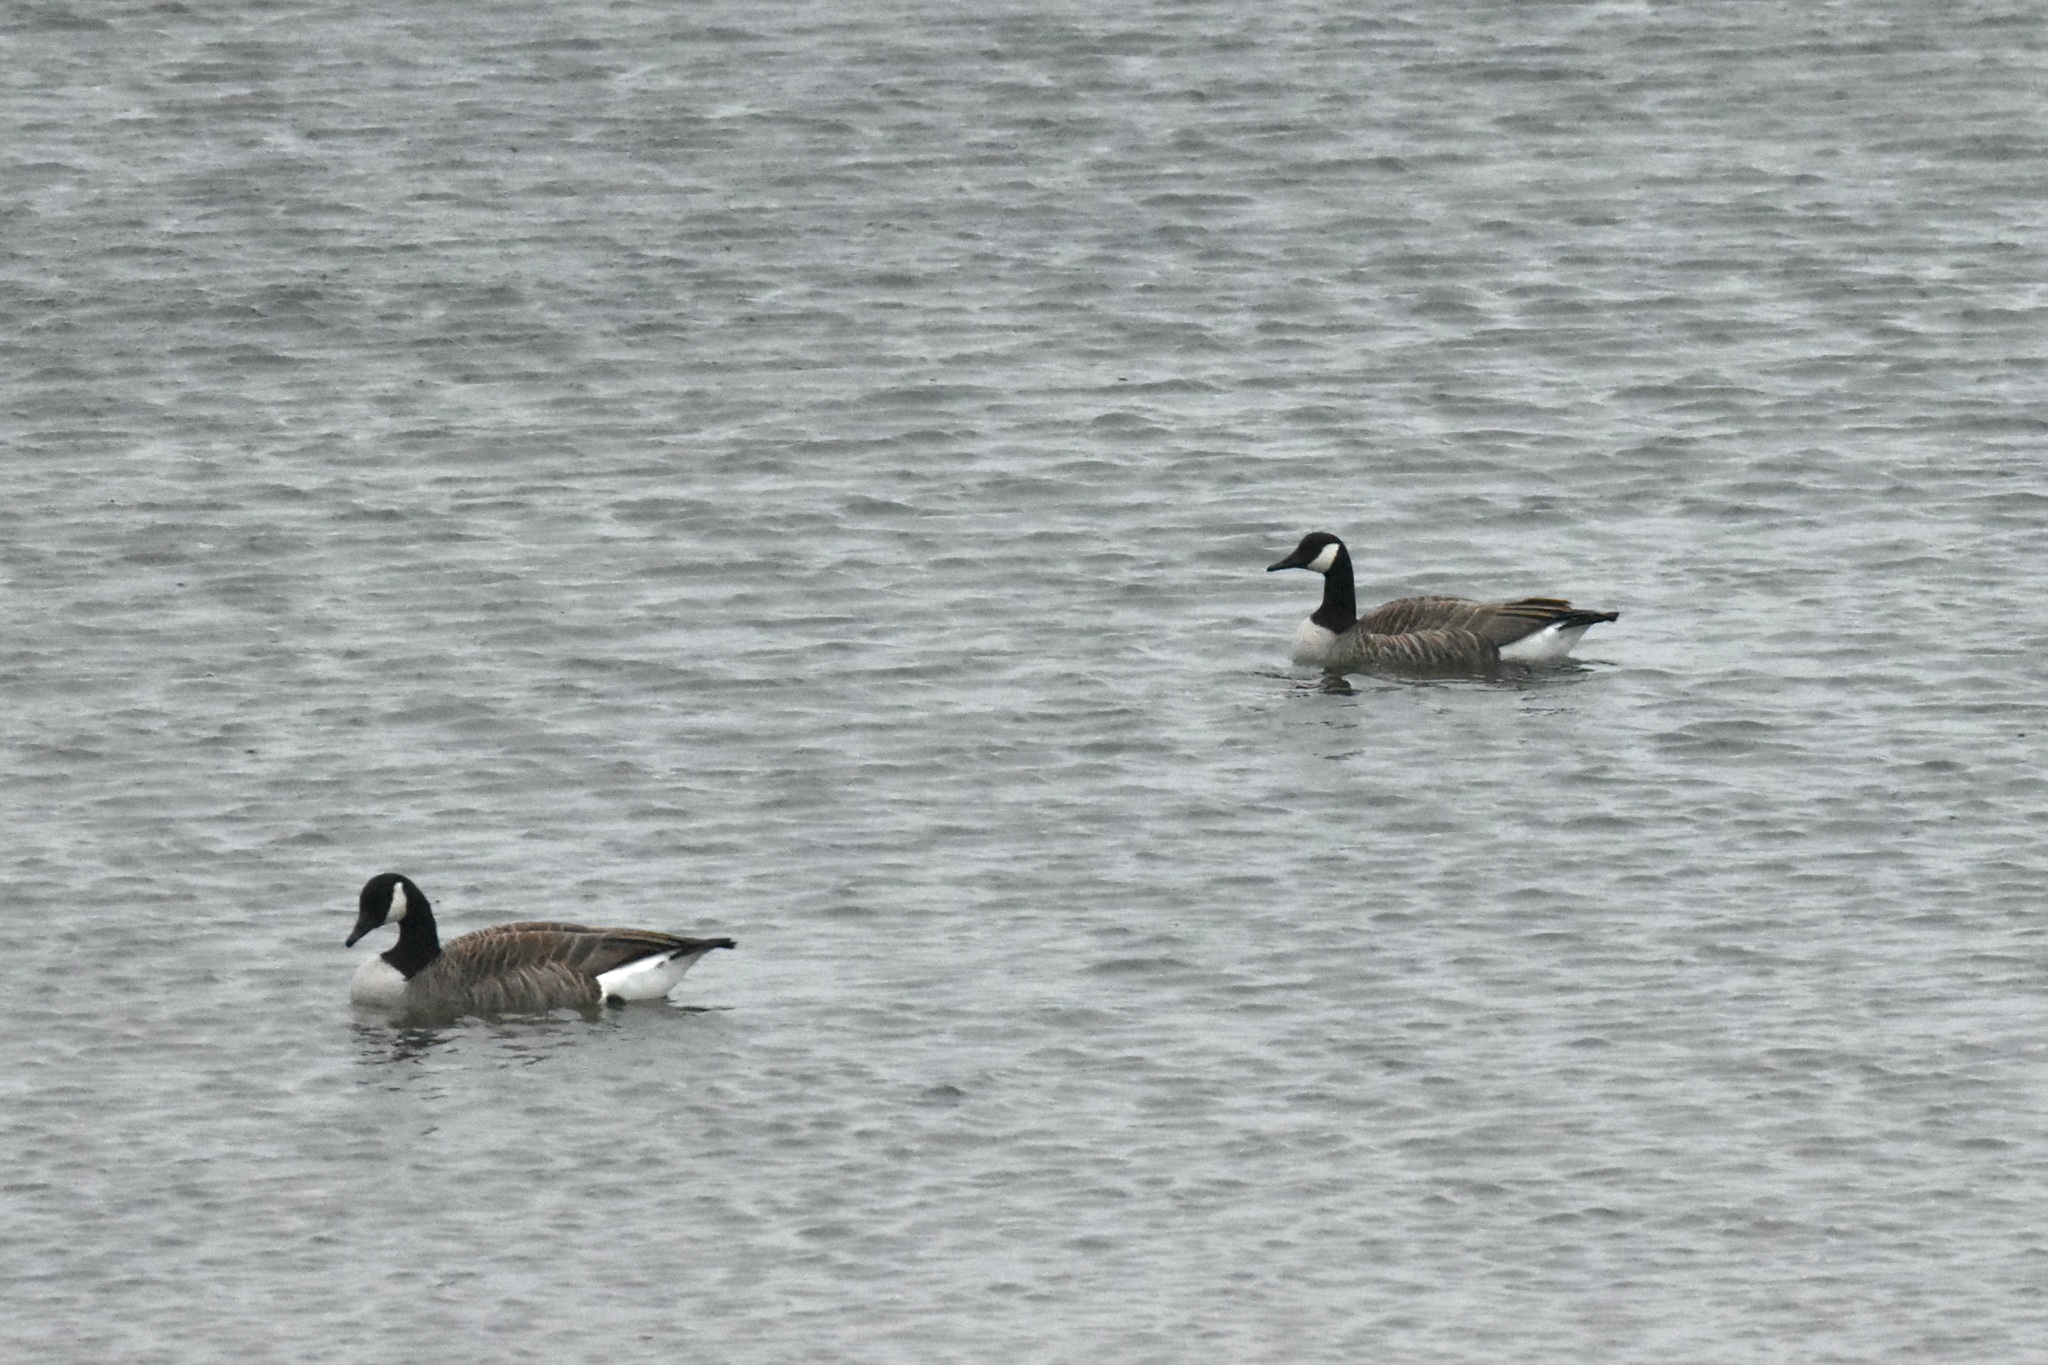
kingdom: Animalia
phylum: Chordata
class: Aves
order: Anseriformes
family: Anatidae
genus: Branta
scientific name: Branta canadensis
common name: Canada goose
